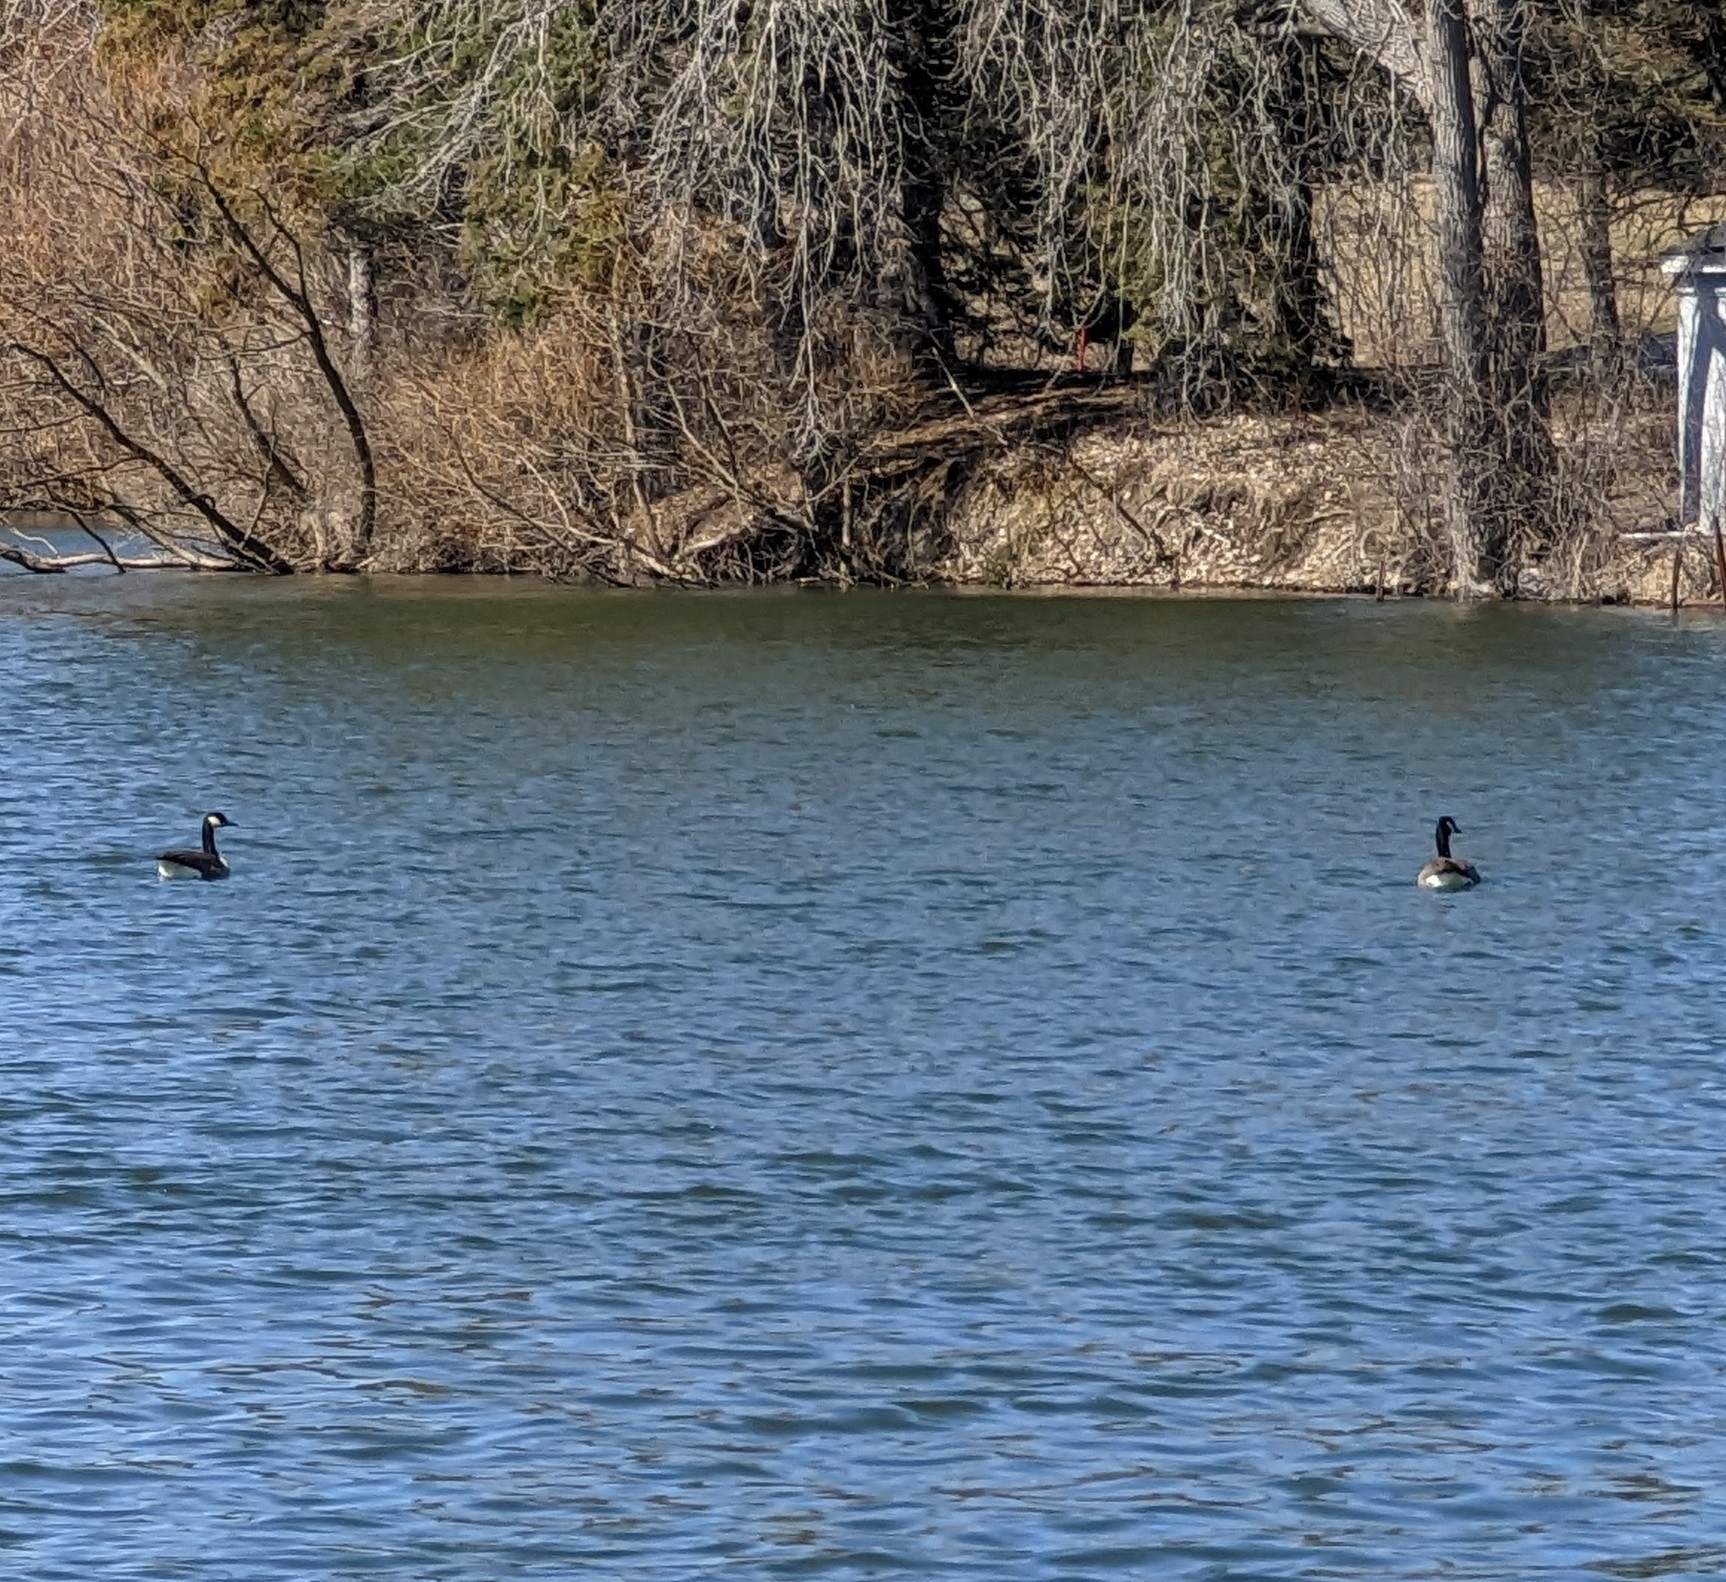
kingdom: Animalia
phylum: Chordata
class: Aves
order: Anseriformes
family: Anatidae
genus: Branta
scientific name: Branta canadensis
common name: Canada goose
